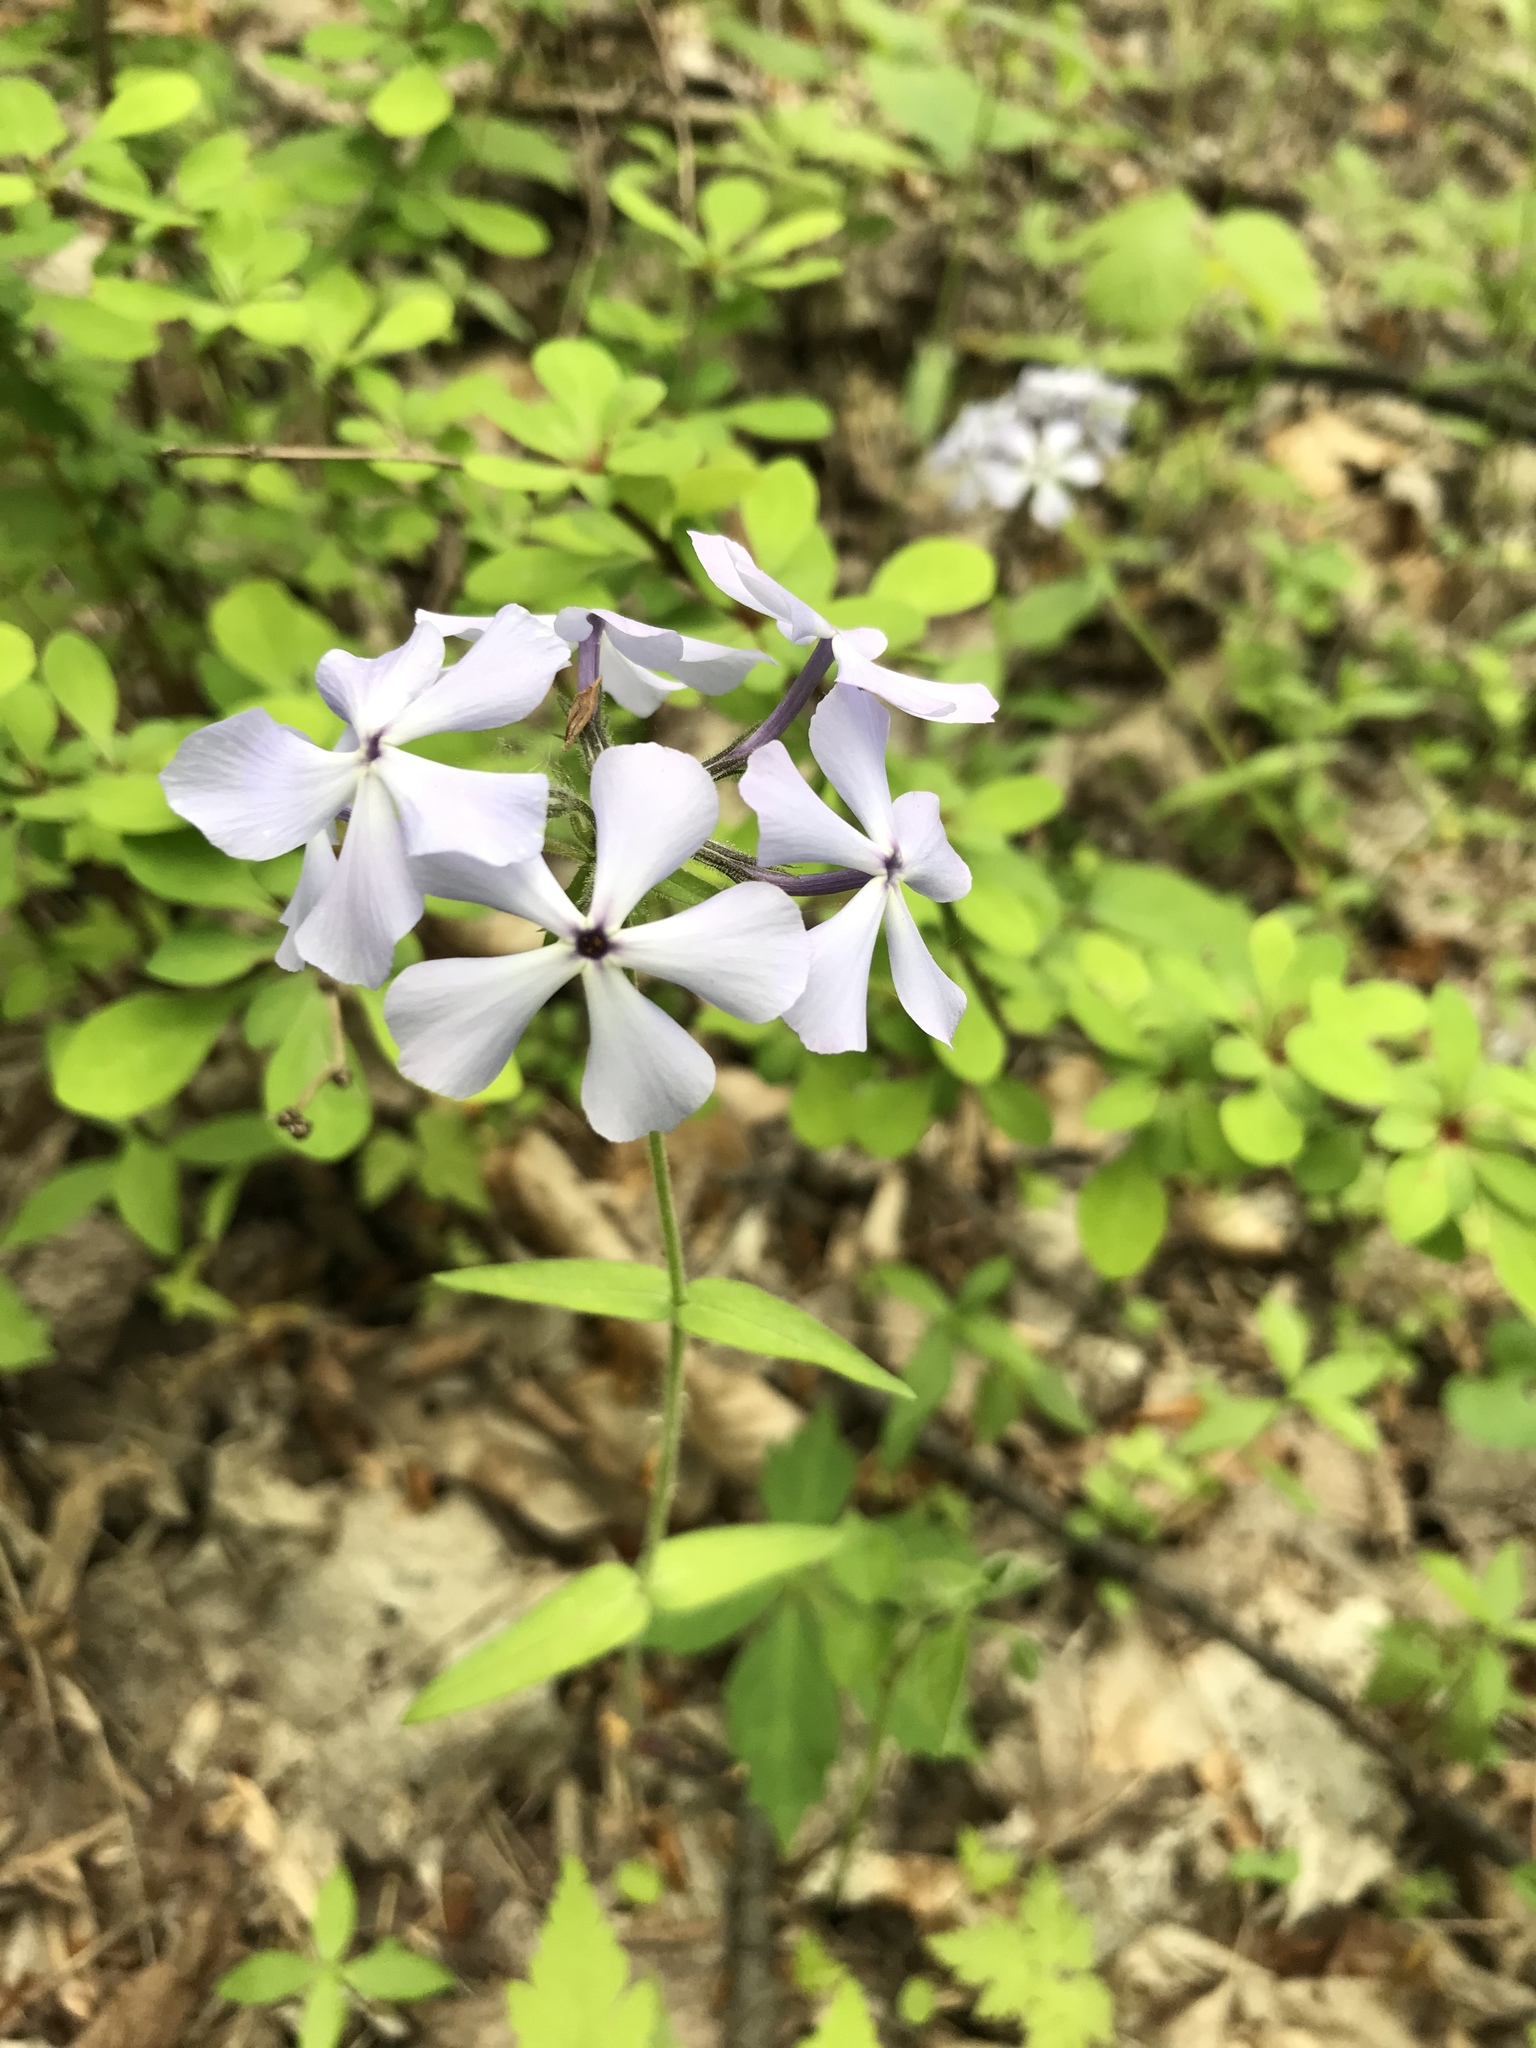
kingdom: Plantae
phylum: Tracheophyta
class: Magnoliopsida
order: Ericales
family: Polemoniaceae
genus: Phlox
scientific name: Phlox divaricata
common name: Blue phlox
